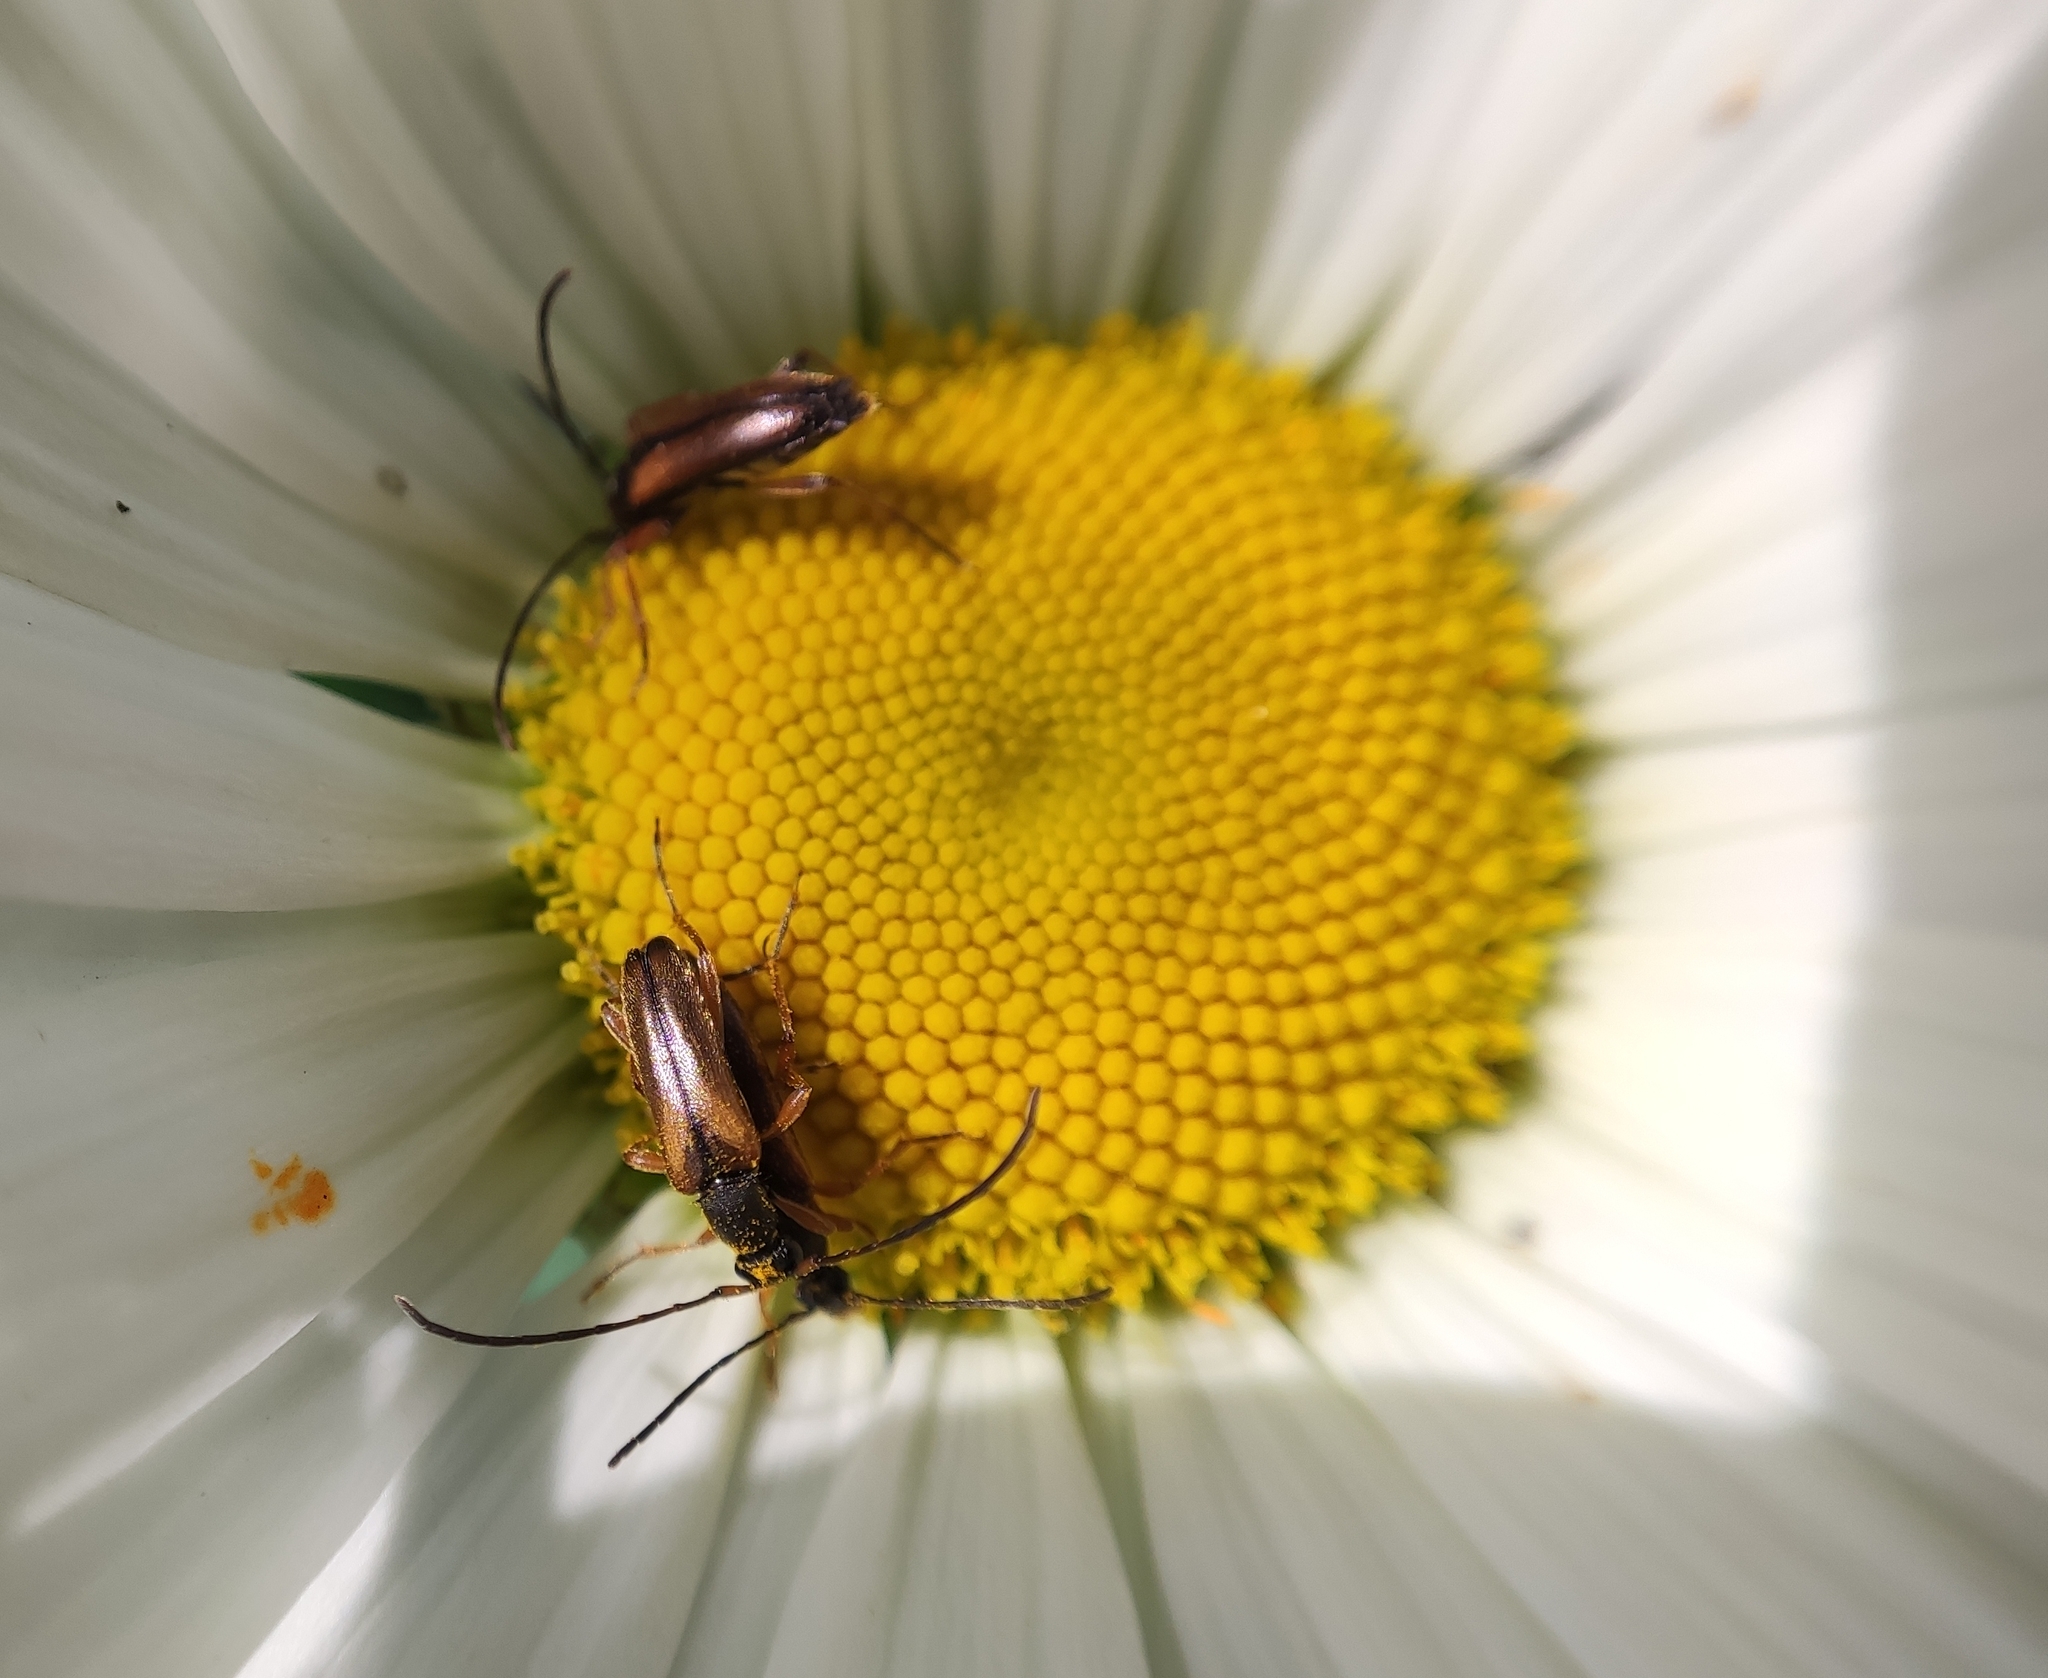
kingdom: Animalia
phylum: Arthropoda
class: Insecta
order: Coleoptera
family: Cerambycidae
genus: Alosterna
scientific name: Alosterna tabacicolor
